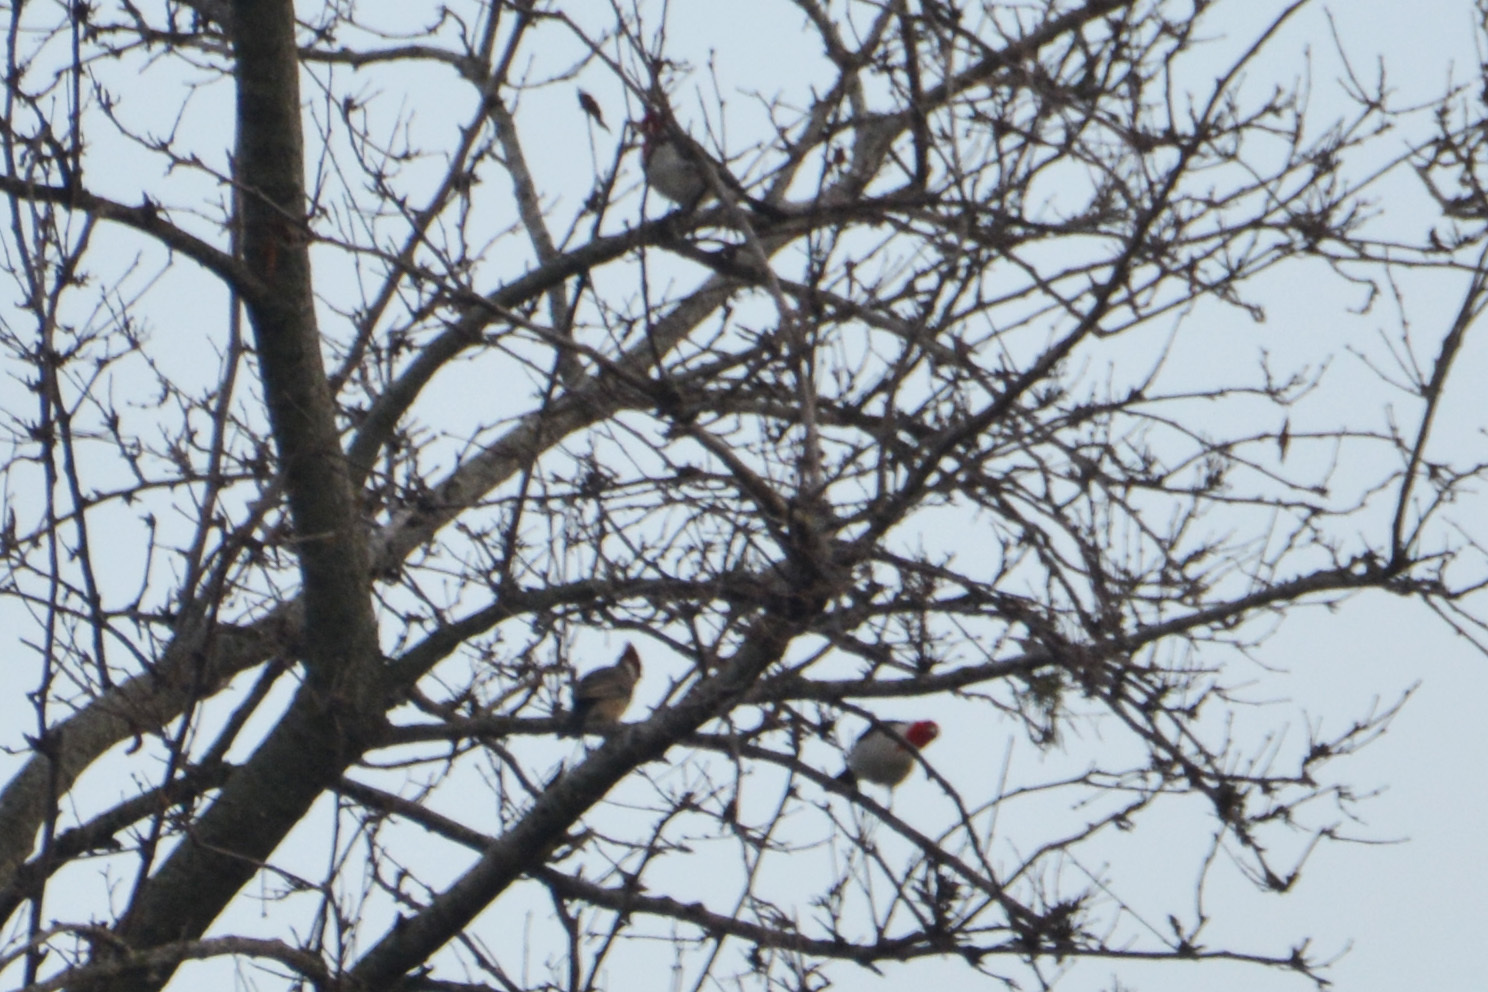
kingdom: Animalia
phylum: Chordata
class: Aves
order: Passeriformes
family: Thraupidae
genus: Paroaria
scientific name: Paroaria coronata
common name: Red-crested cardinal
